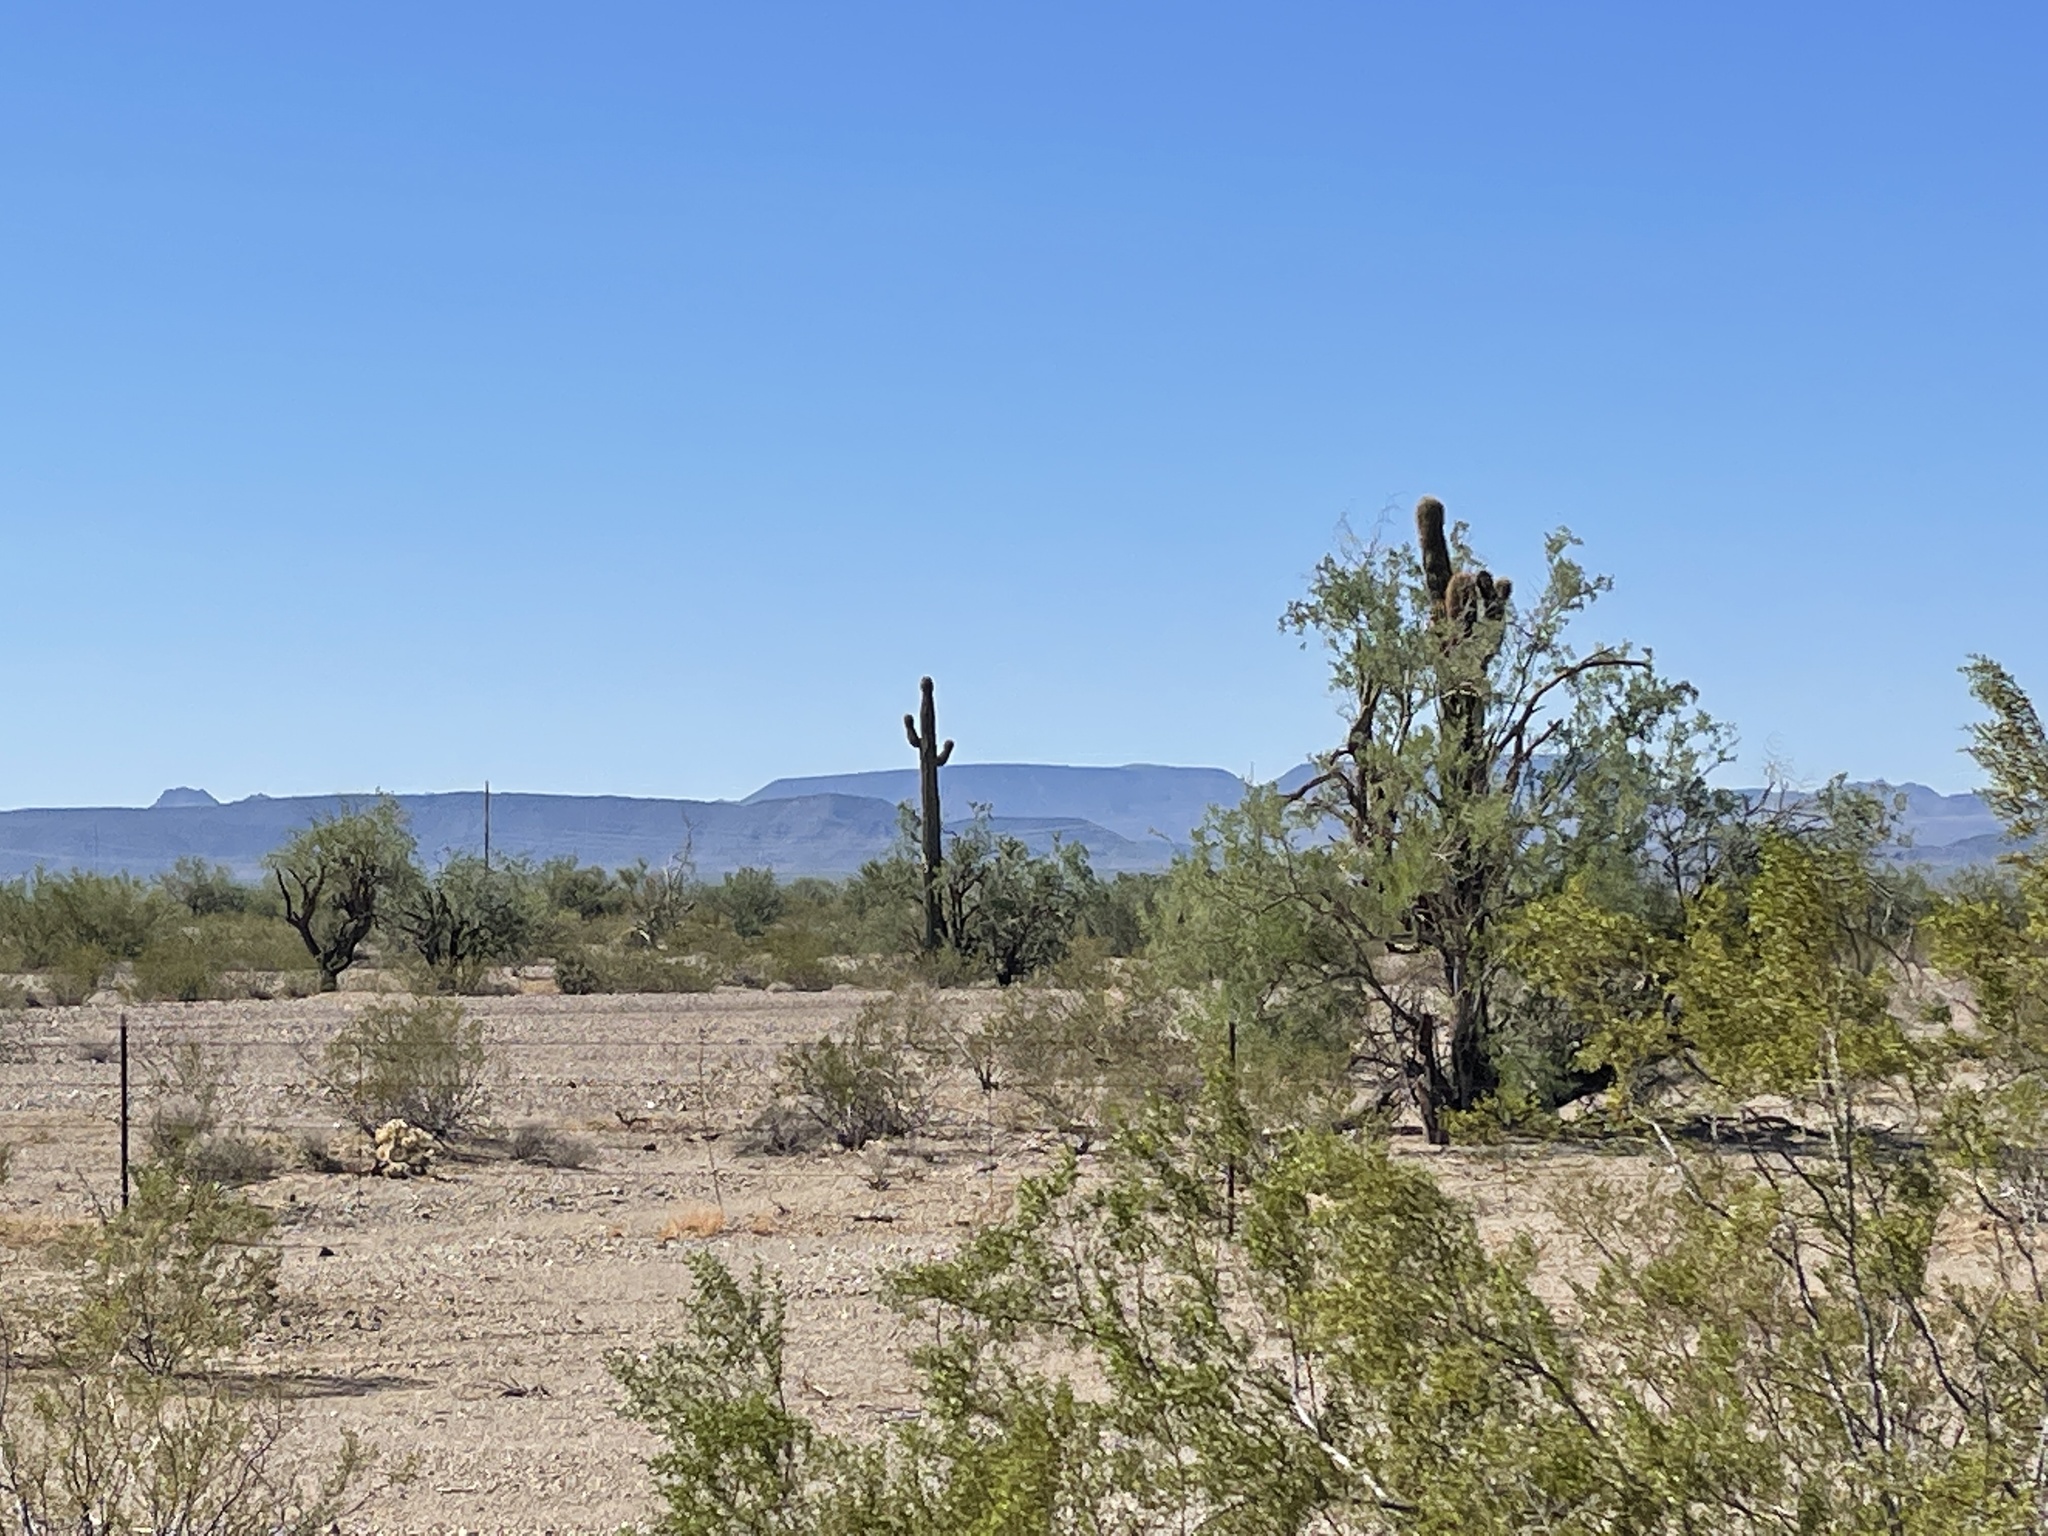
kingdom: Plantae
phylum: Tracheophyta
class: Magnoliopsida
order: Zygophyllales
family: Zygophyllaceae
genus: Larrea
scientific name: Larrea tridentata
